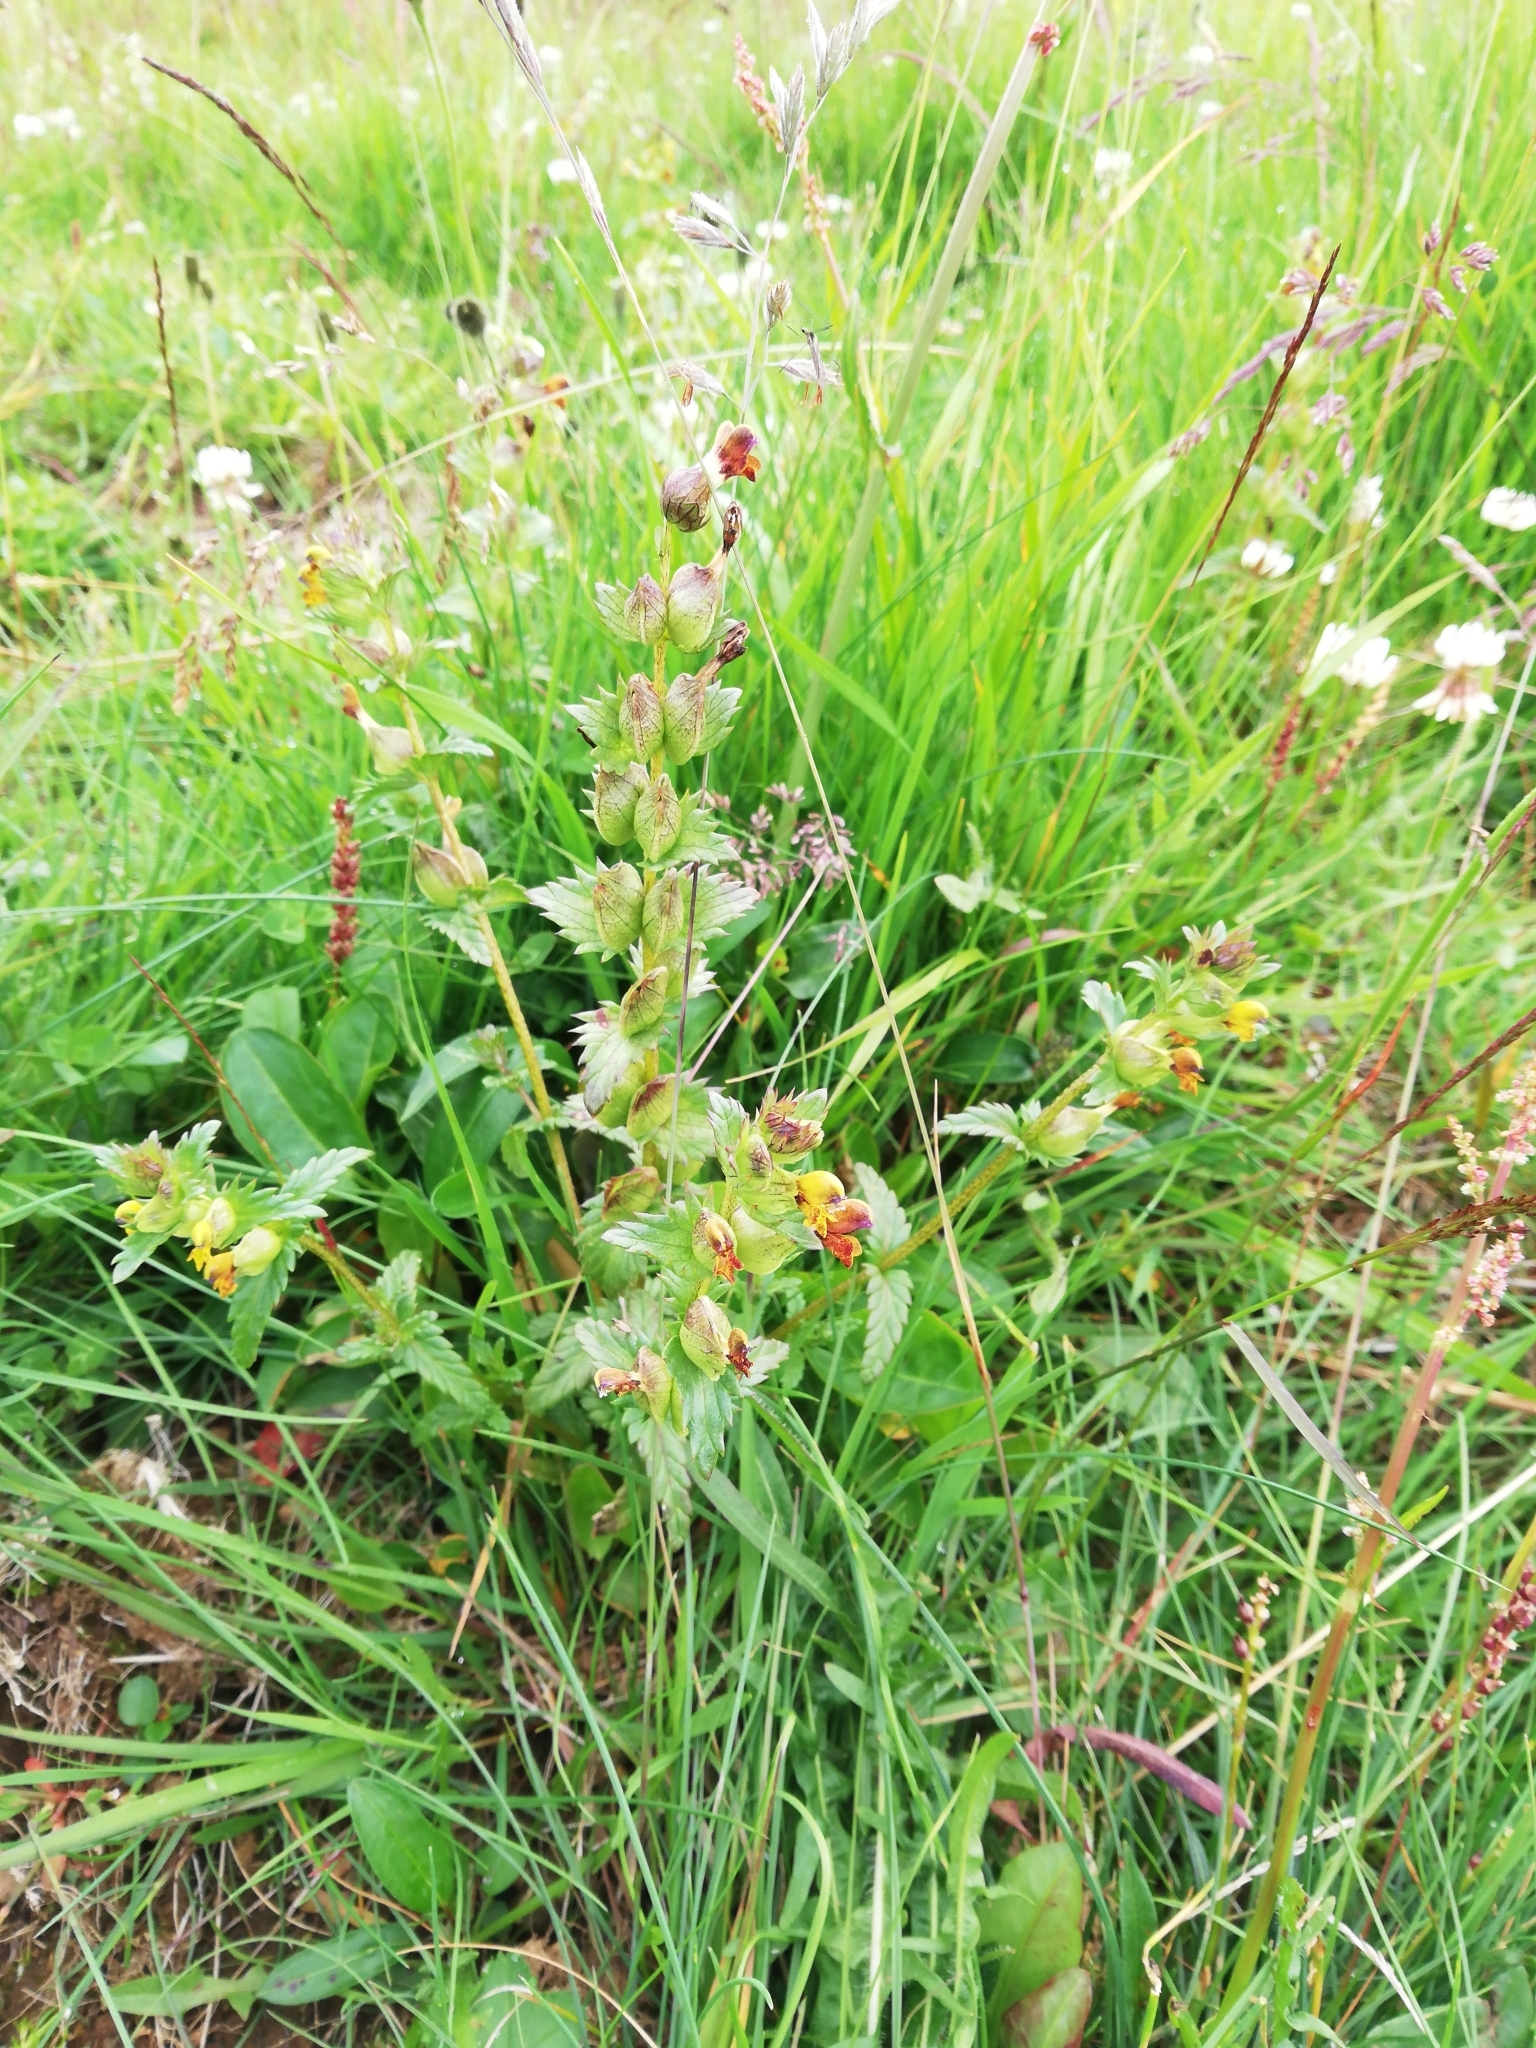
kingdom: Plantae
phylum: Tracheophyta
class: Magnoliopsida
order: Lamiales
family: Orobanchaceae
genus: Rhinanthus
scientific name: Rhinanthus minor
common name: Yellow-rattle
